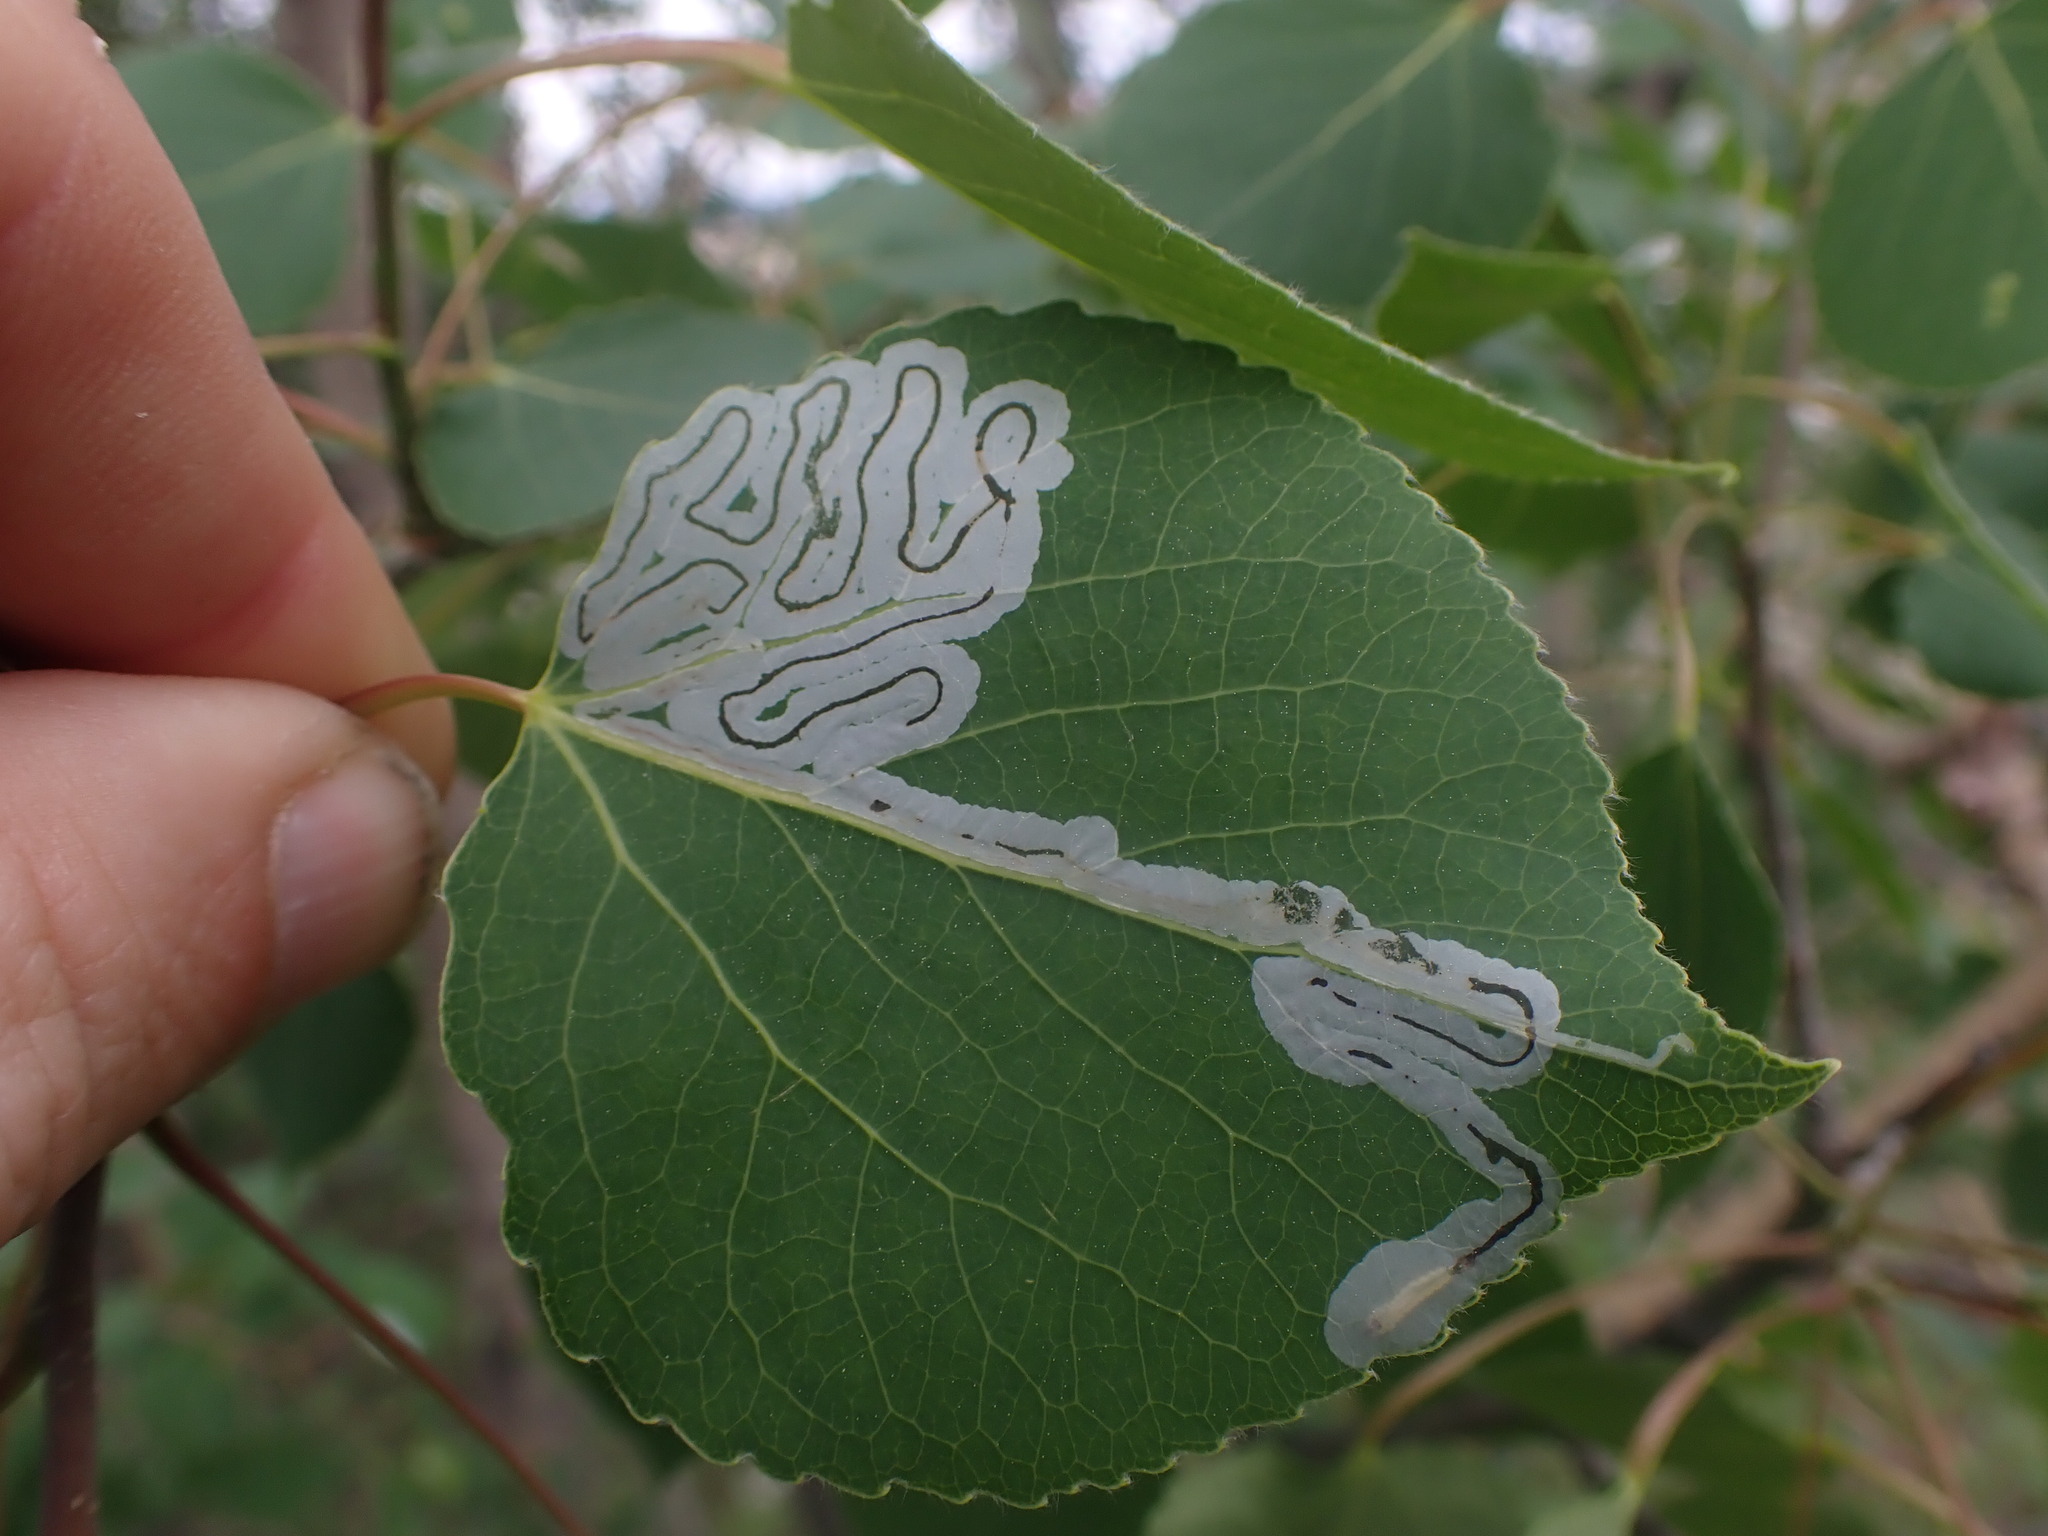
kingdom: Animalia
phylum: Arthropoda
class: Insecta
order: Lepidoptera
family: Gracillariidae
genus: Phyllocnistis
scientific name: Phyllocnistis populiella
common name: Aspen serpentine leafminer moth
